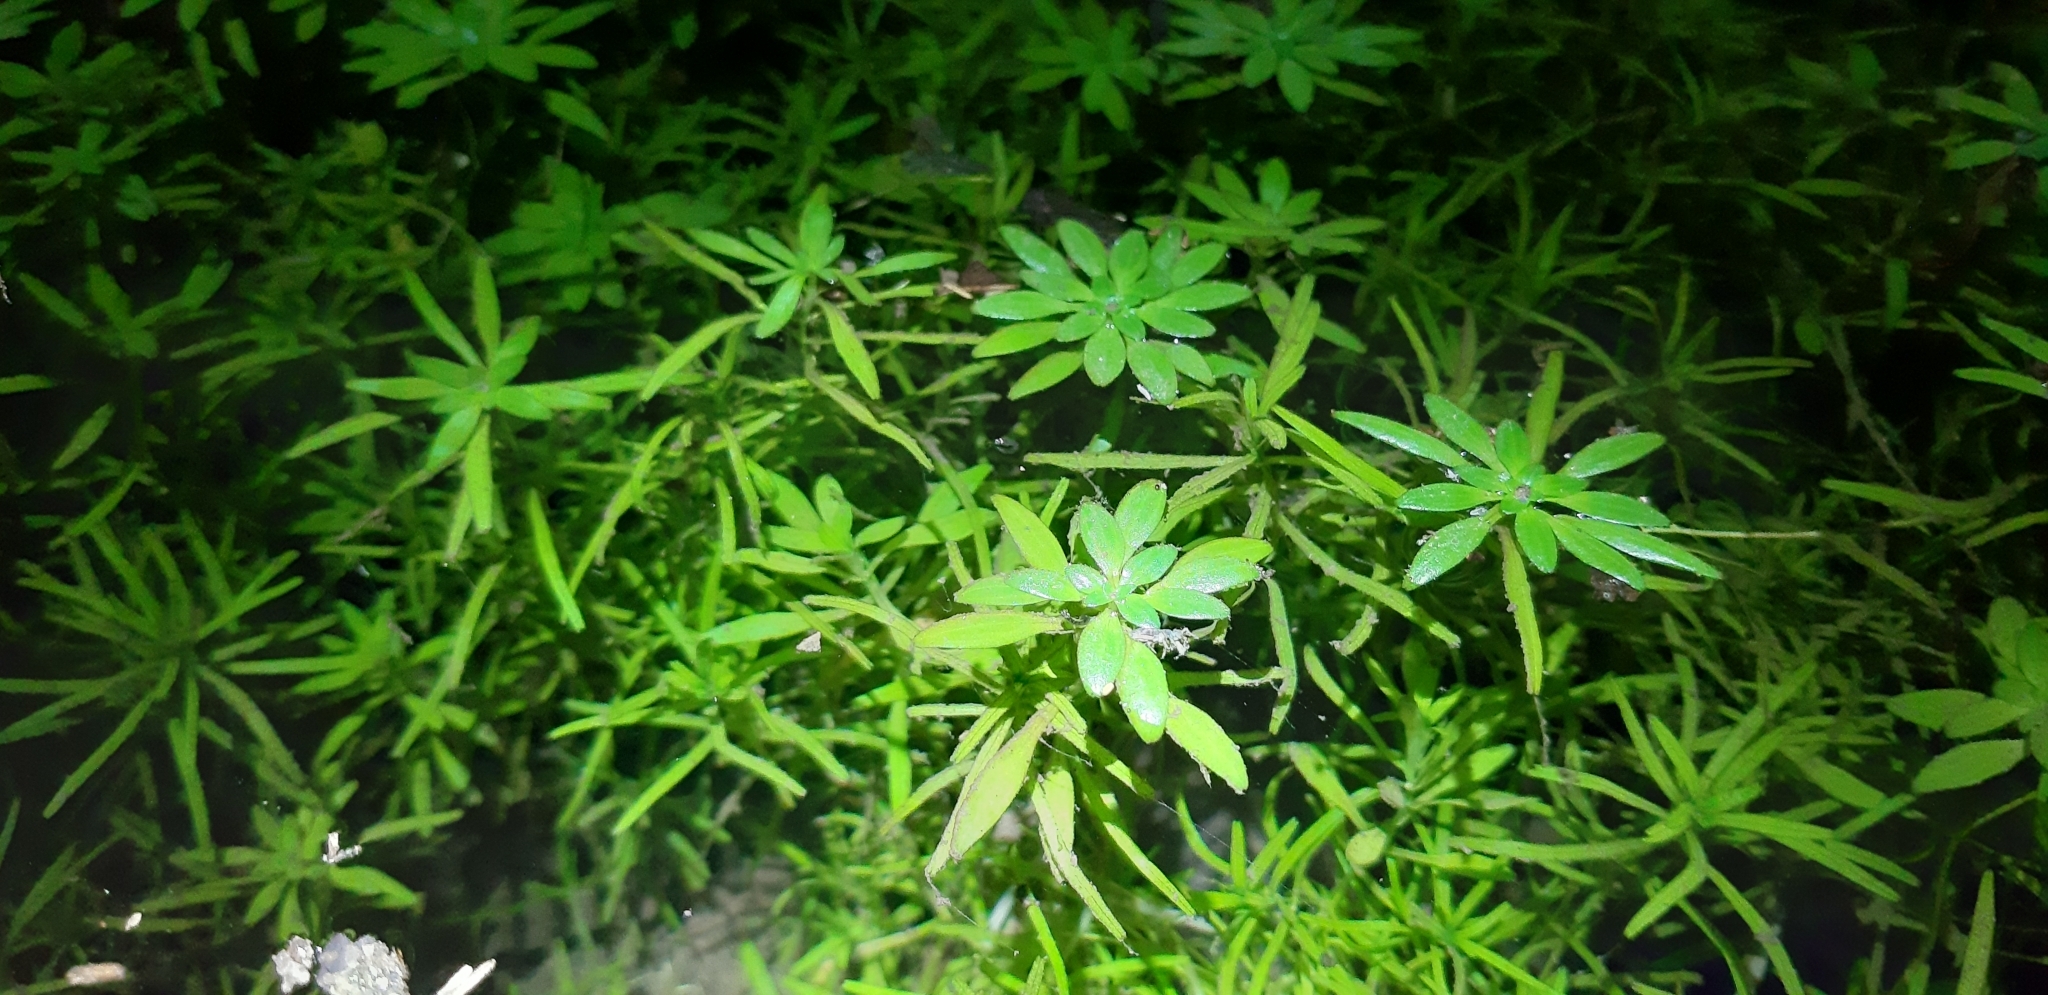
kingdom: Plantae
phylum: Tracheophyta
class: Magnoliopsida
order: Lamiales
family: Plantaginaceae
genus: Callitriche
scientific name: Callitriche obtusangula
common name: Blunt-fruited water-starwort
